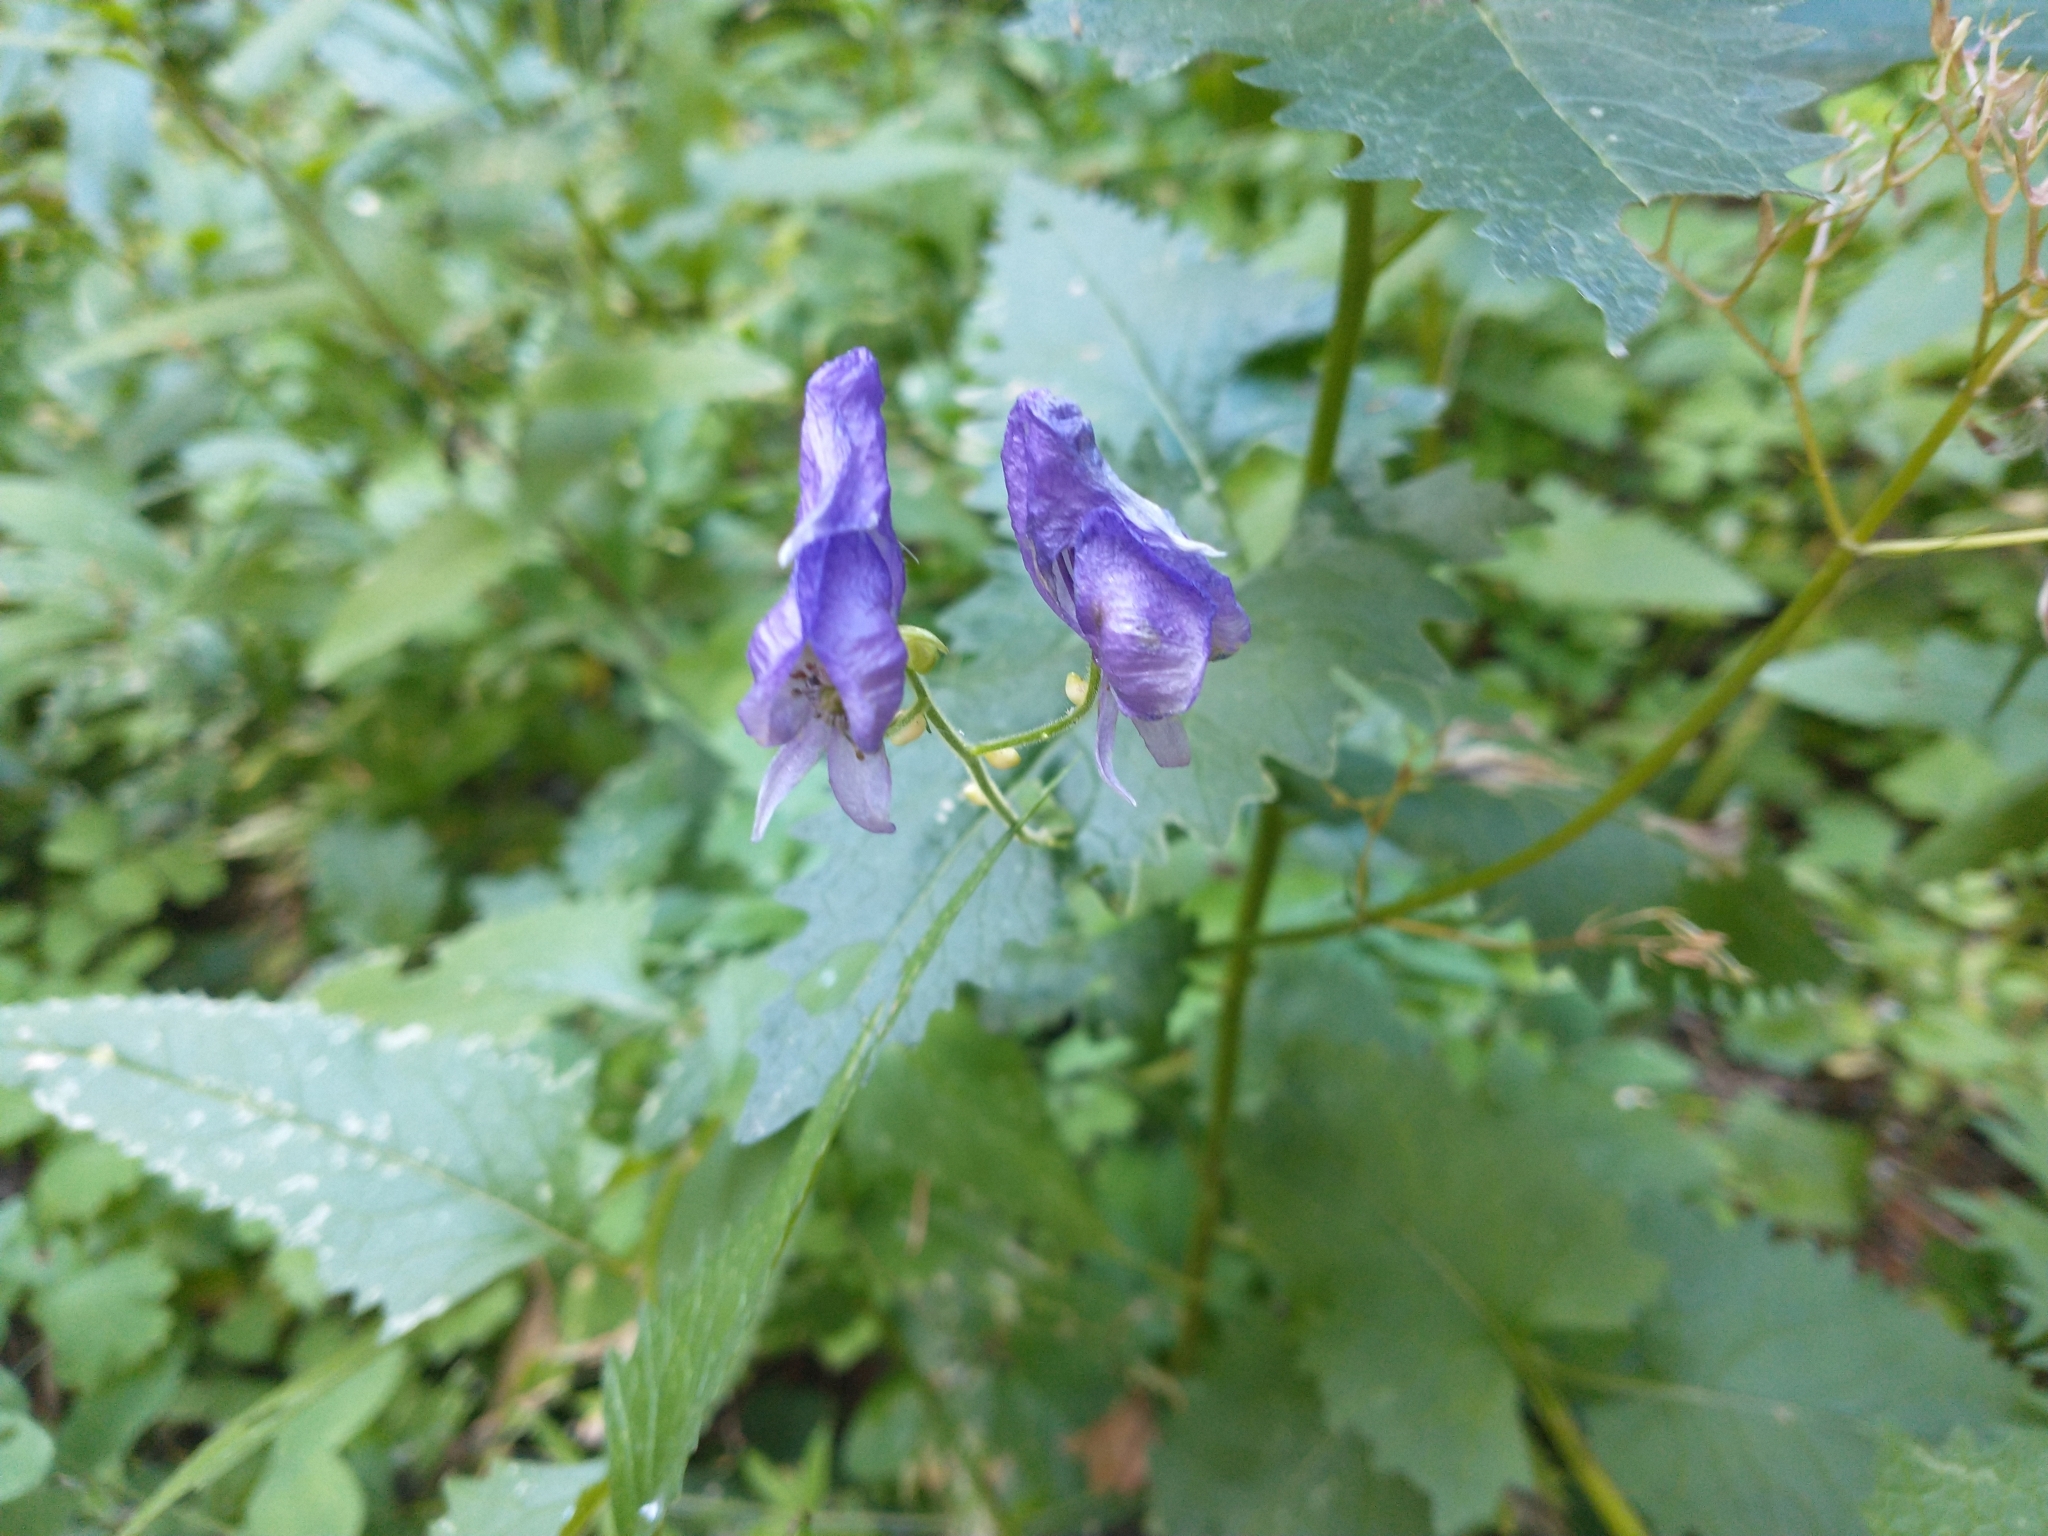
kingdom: Plantae
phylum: Tracheophyta
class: Magnoliopsida
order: Ranunculales
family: Ranunculaceae
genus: Aconitum
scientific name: Aconitum columbianum
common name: Columbia aconite
